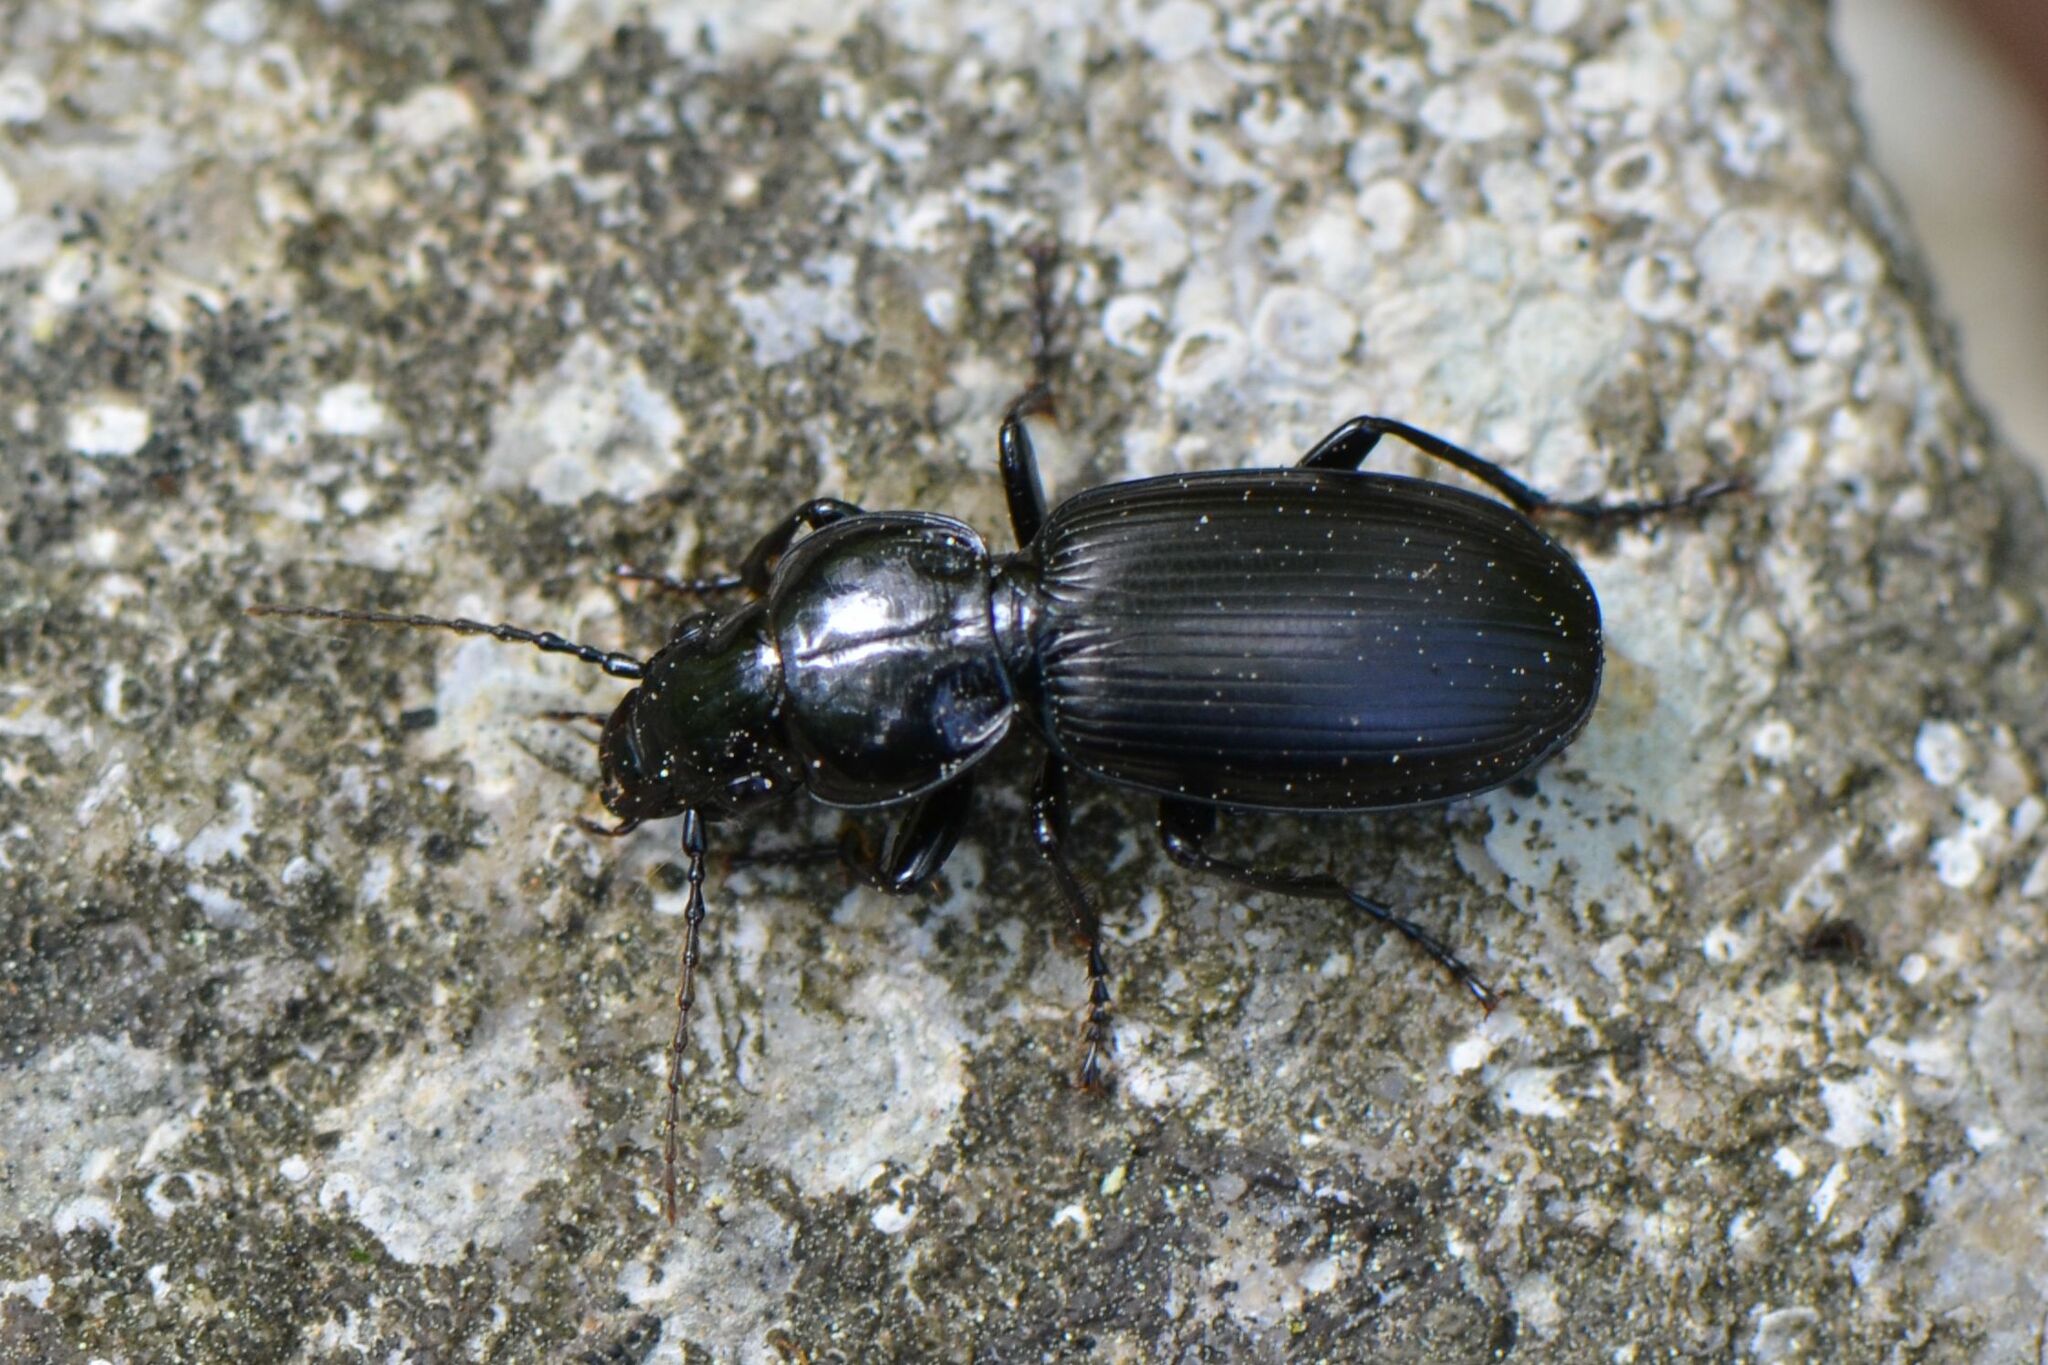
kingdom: Animalia
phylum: Arthropoda
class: Insecta
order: Coleoptera
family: Carabidae
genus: Pterostichus
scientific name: Pterostichus madidus
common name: Black clock
